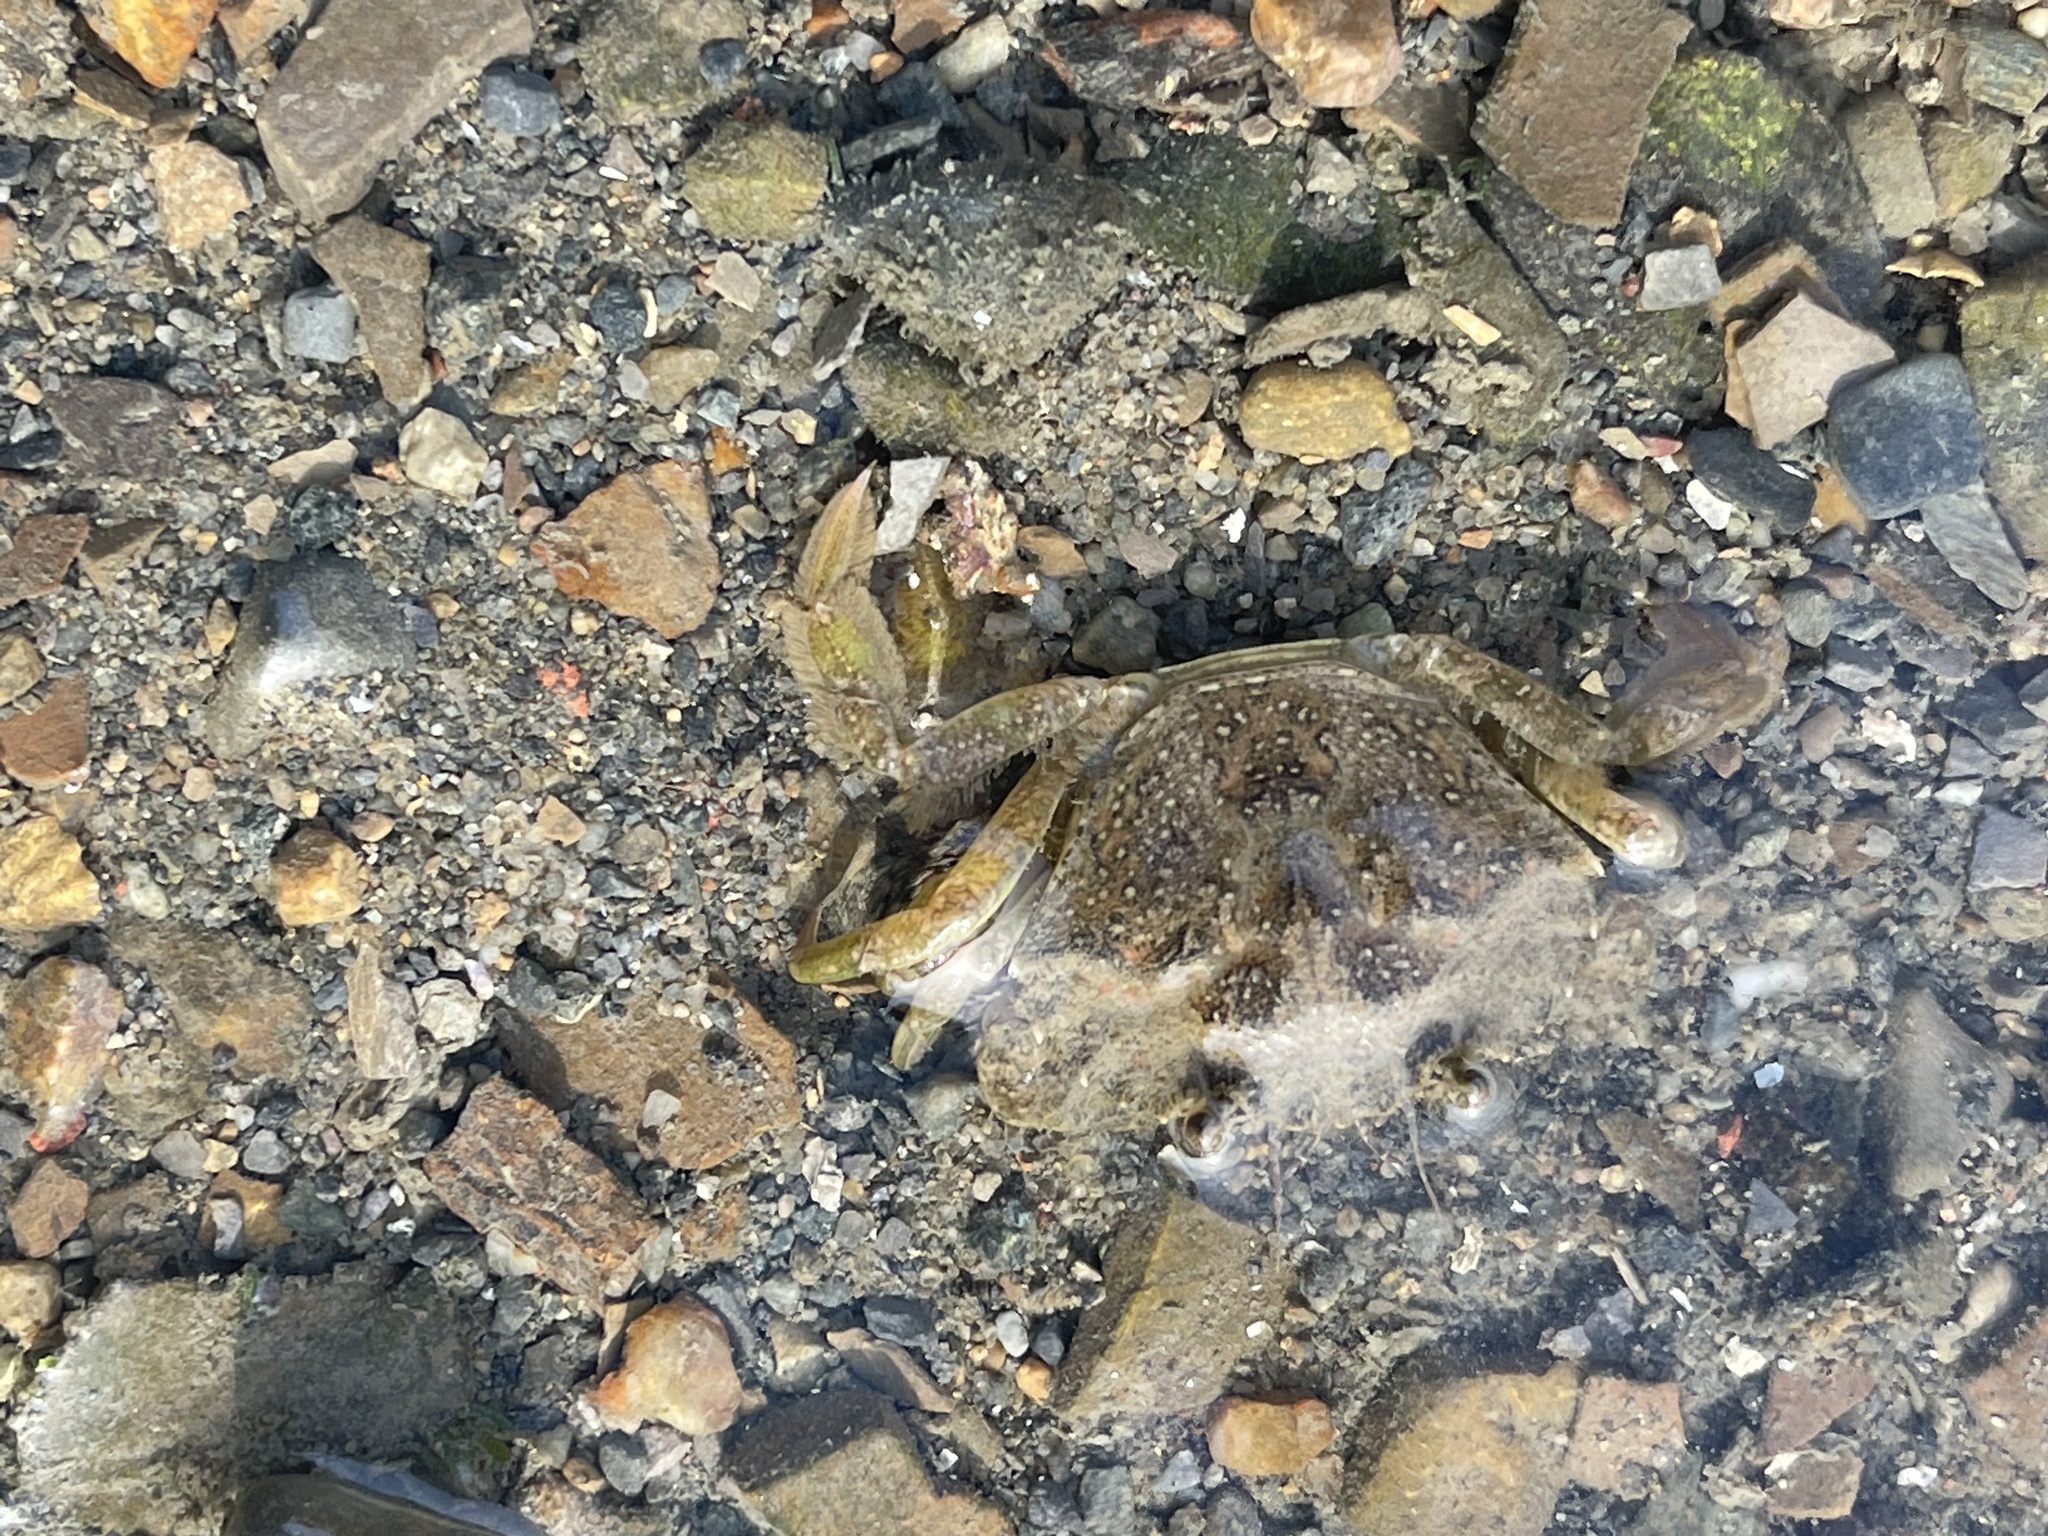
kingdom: Animalia
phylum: Arthropoda
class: Malacostraca
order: Decapoda
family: Carcinidae
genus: Carcinus
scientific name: Carcinus maenas
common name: European green crab
